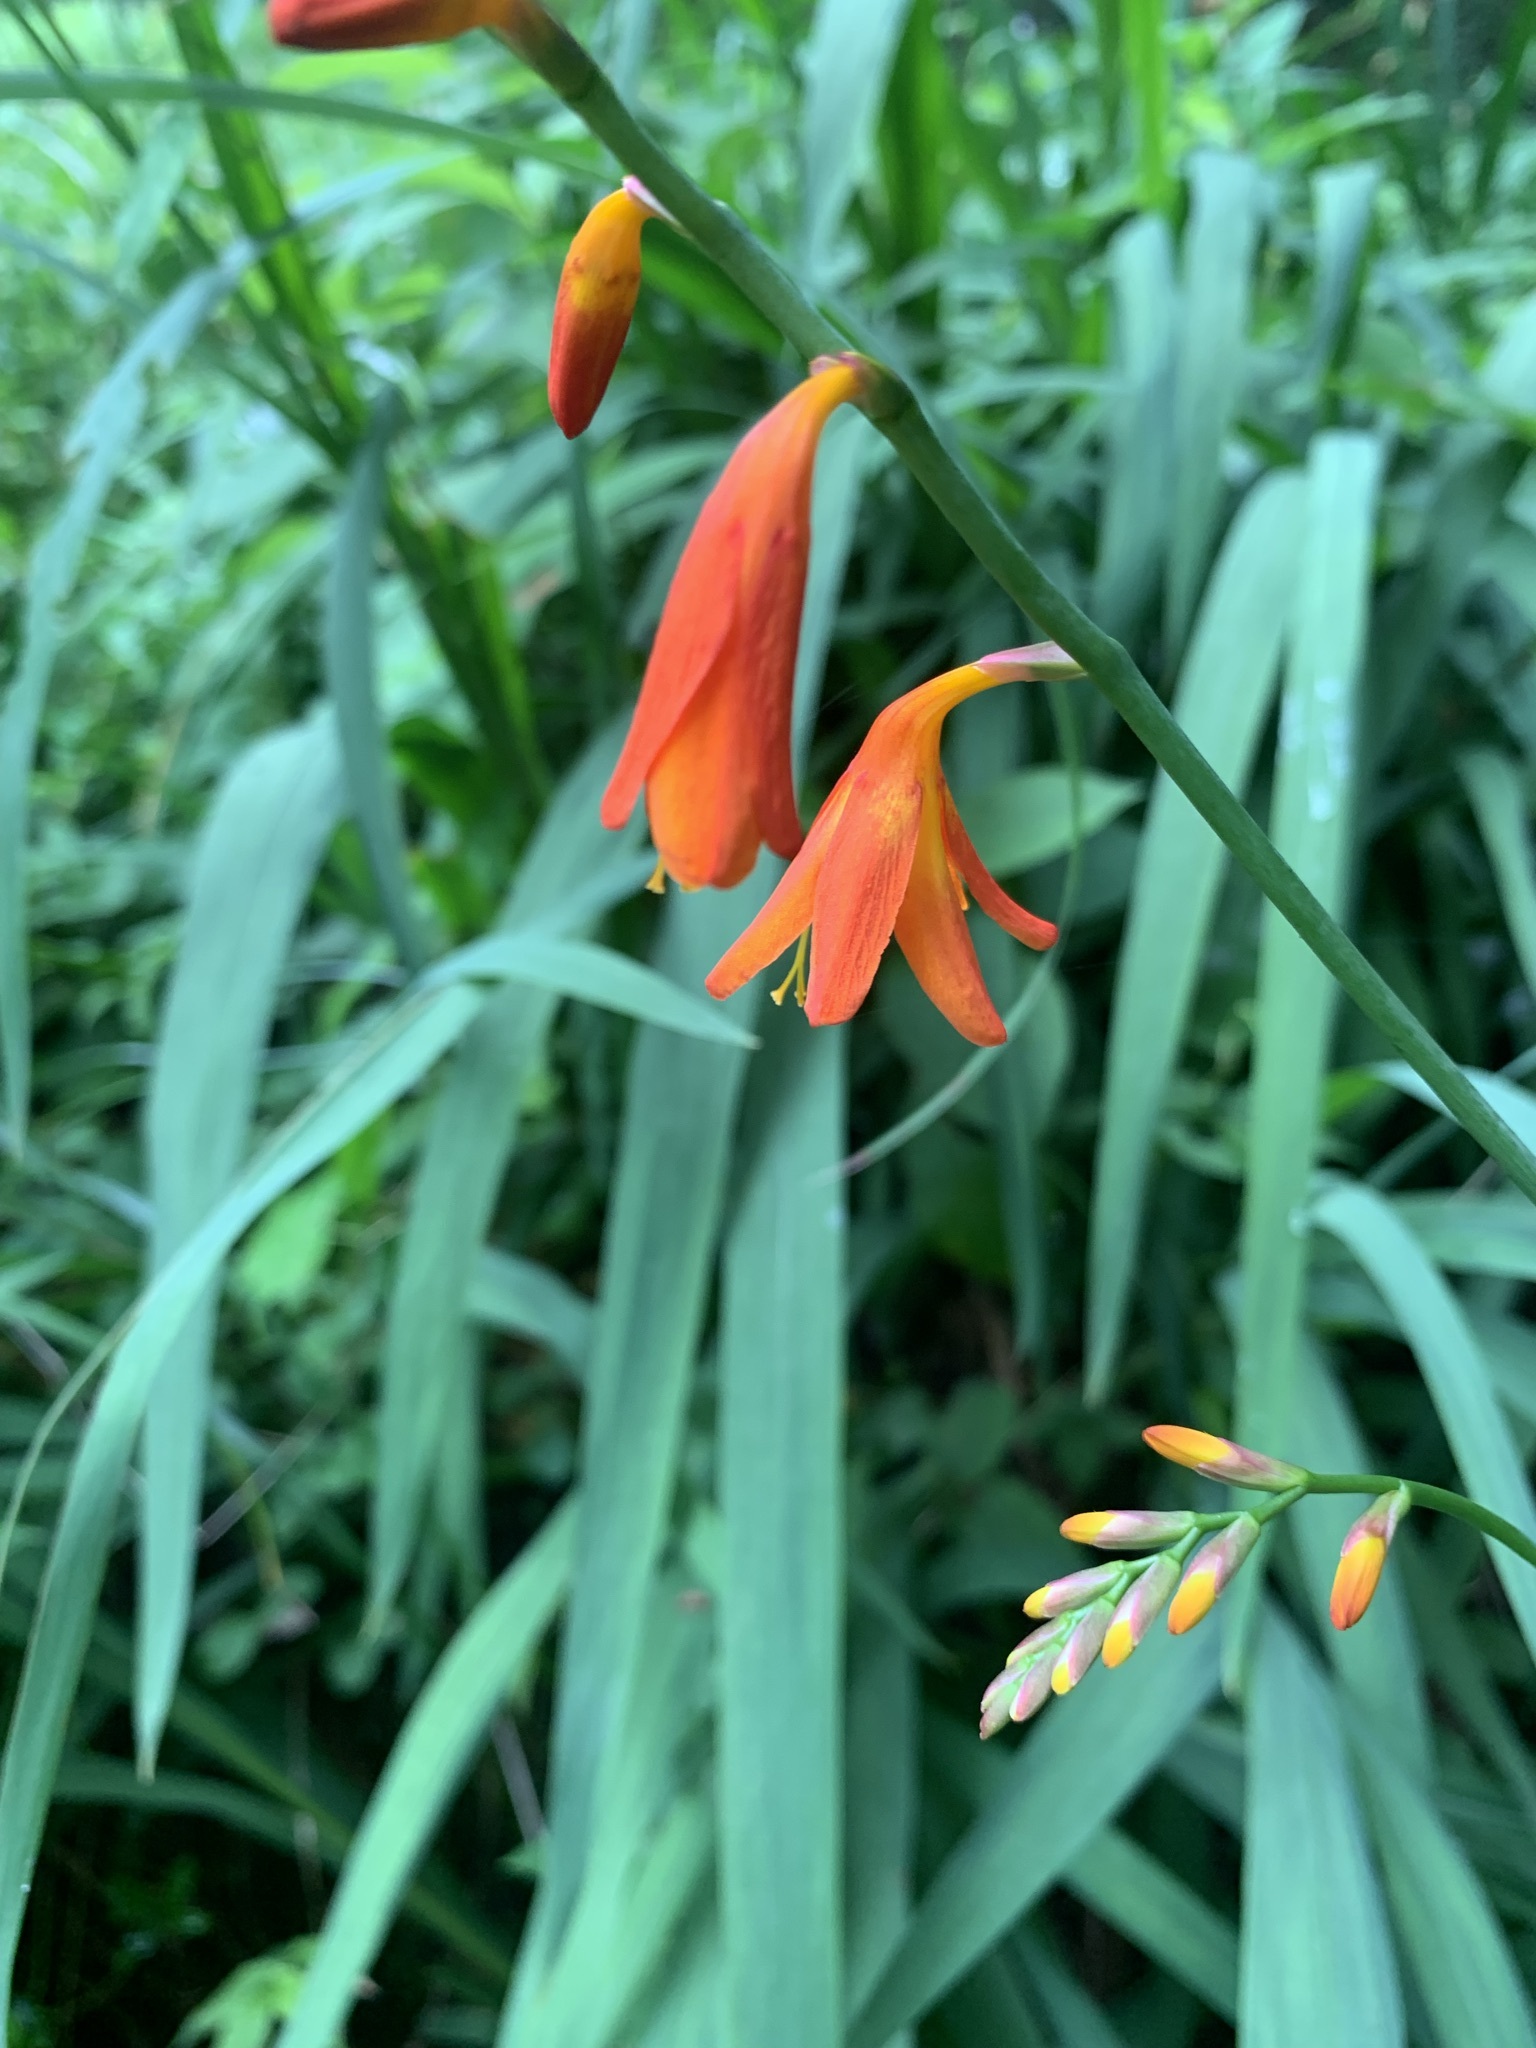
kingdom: Plantae
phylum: Tracheophyta
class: Liliopsida
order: Asparagales
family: Iridaceae
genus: Crocosmia
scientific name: Crocosmia crocosmiiflora
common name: Montbretia
